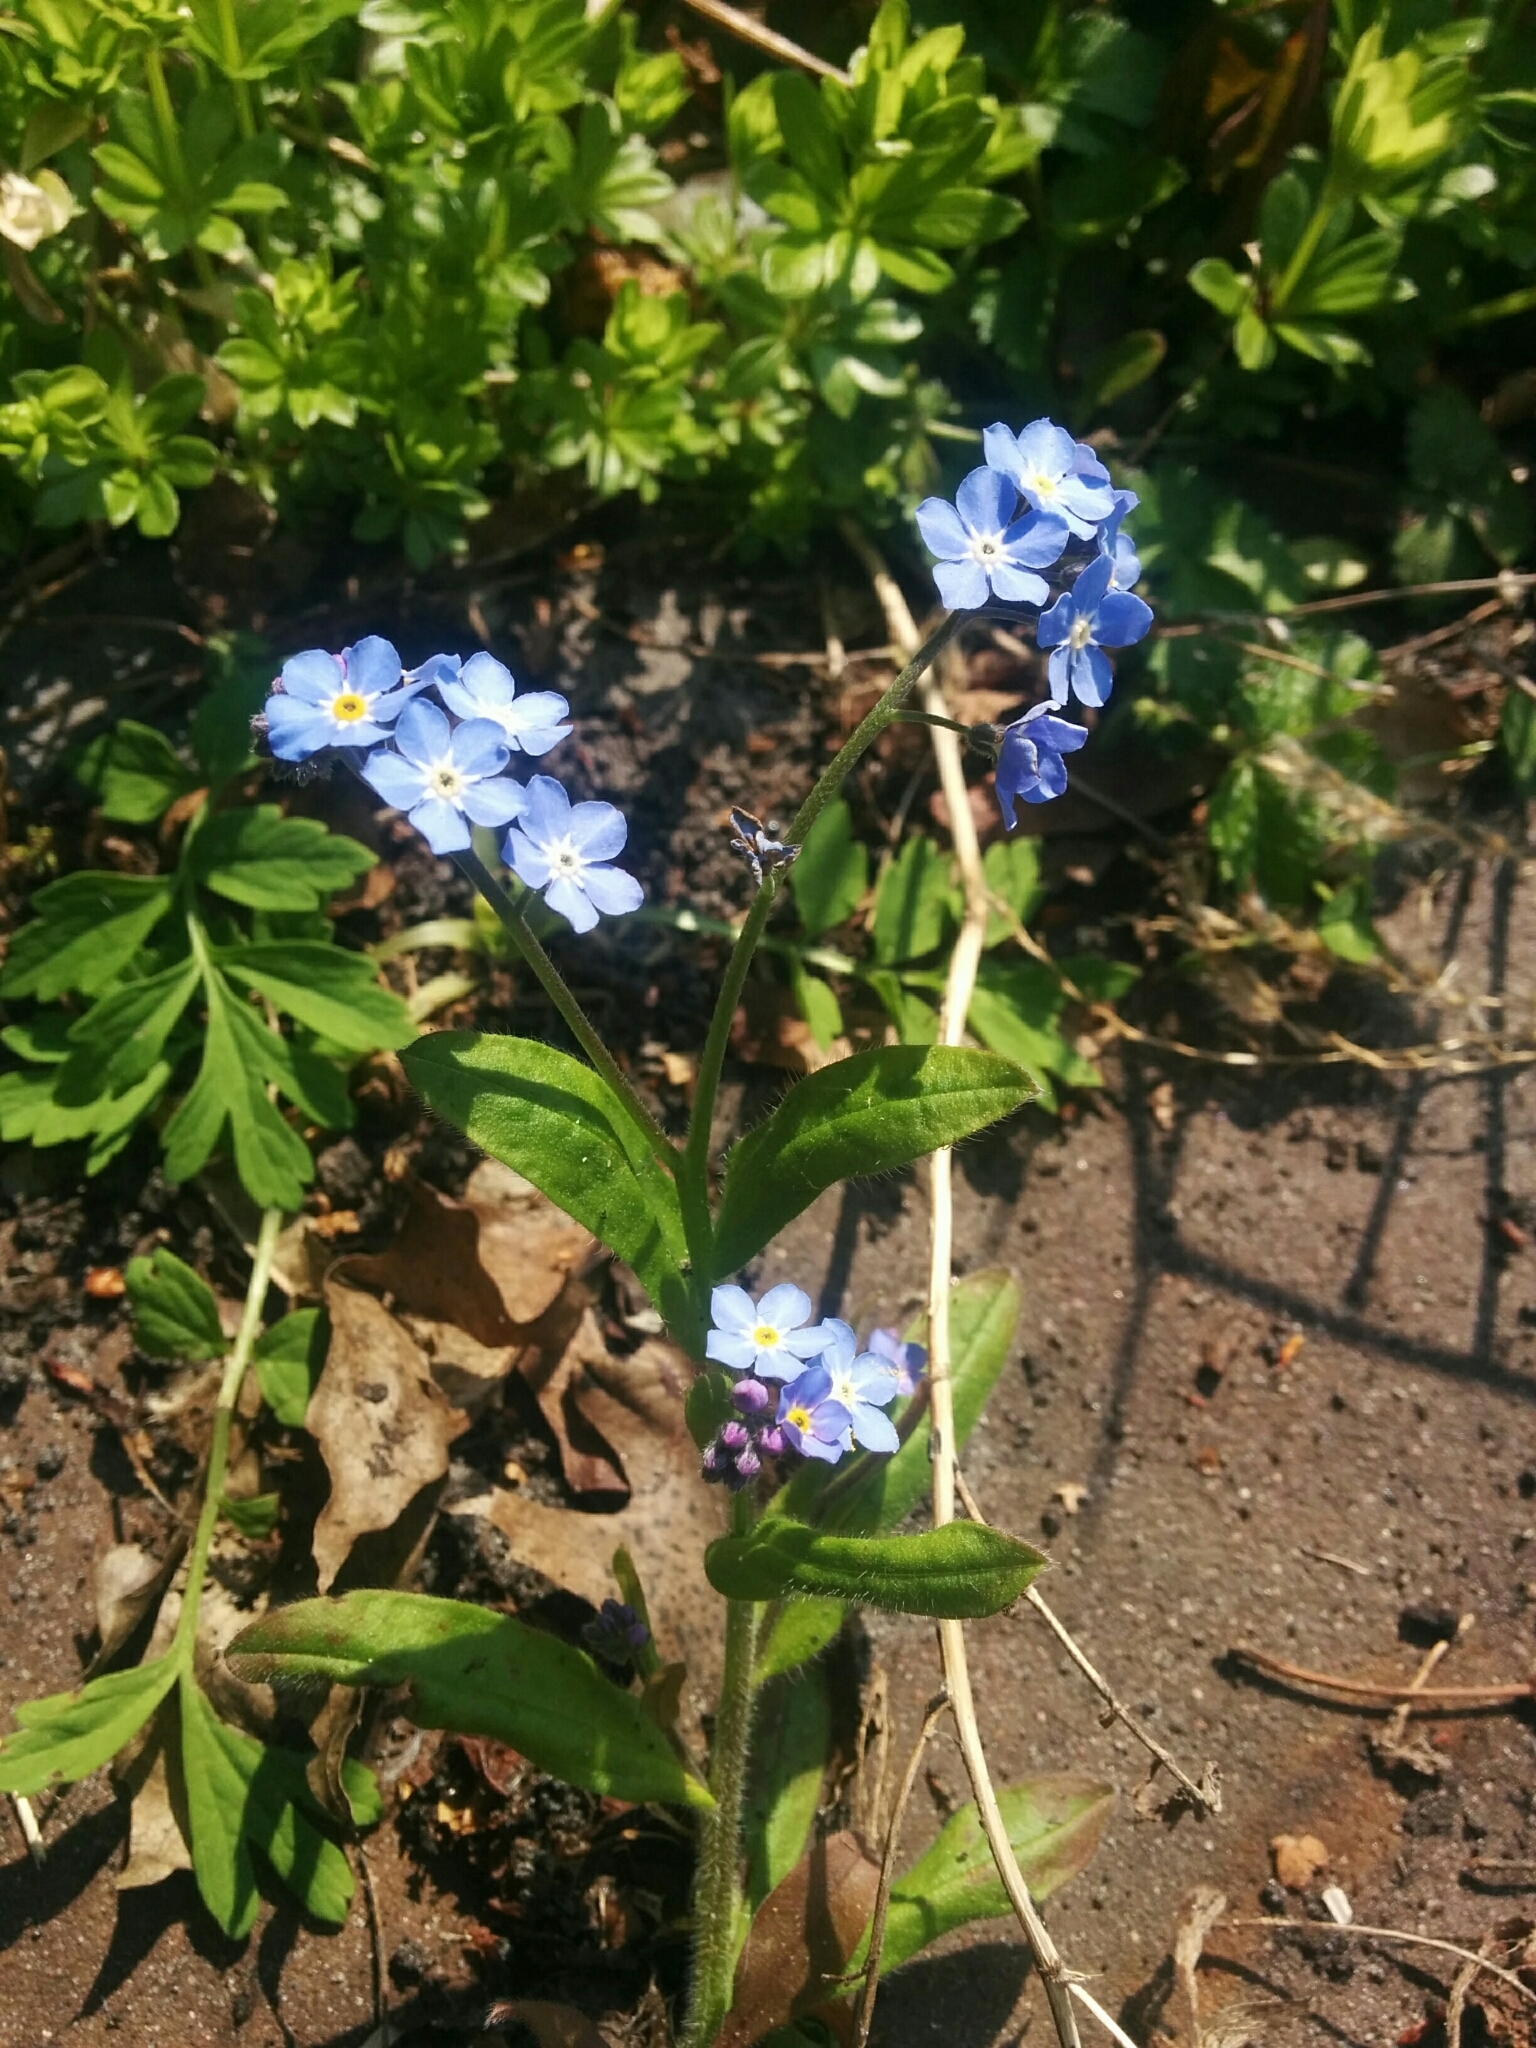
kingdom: Plantae
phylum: Tracheophyta
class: Magnoliopsida
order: Boraginales
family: Boraginaceae
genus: Myosotis
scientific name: Myosotis sylvatica
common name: Wood forget-me-not
